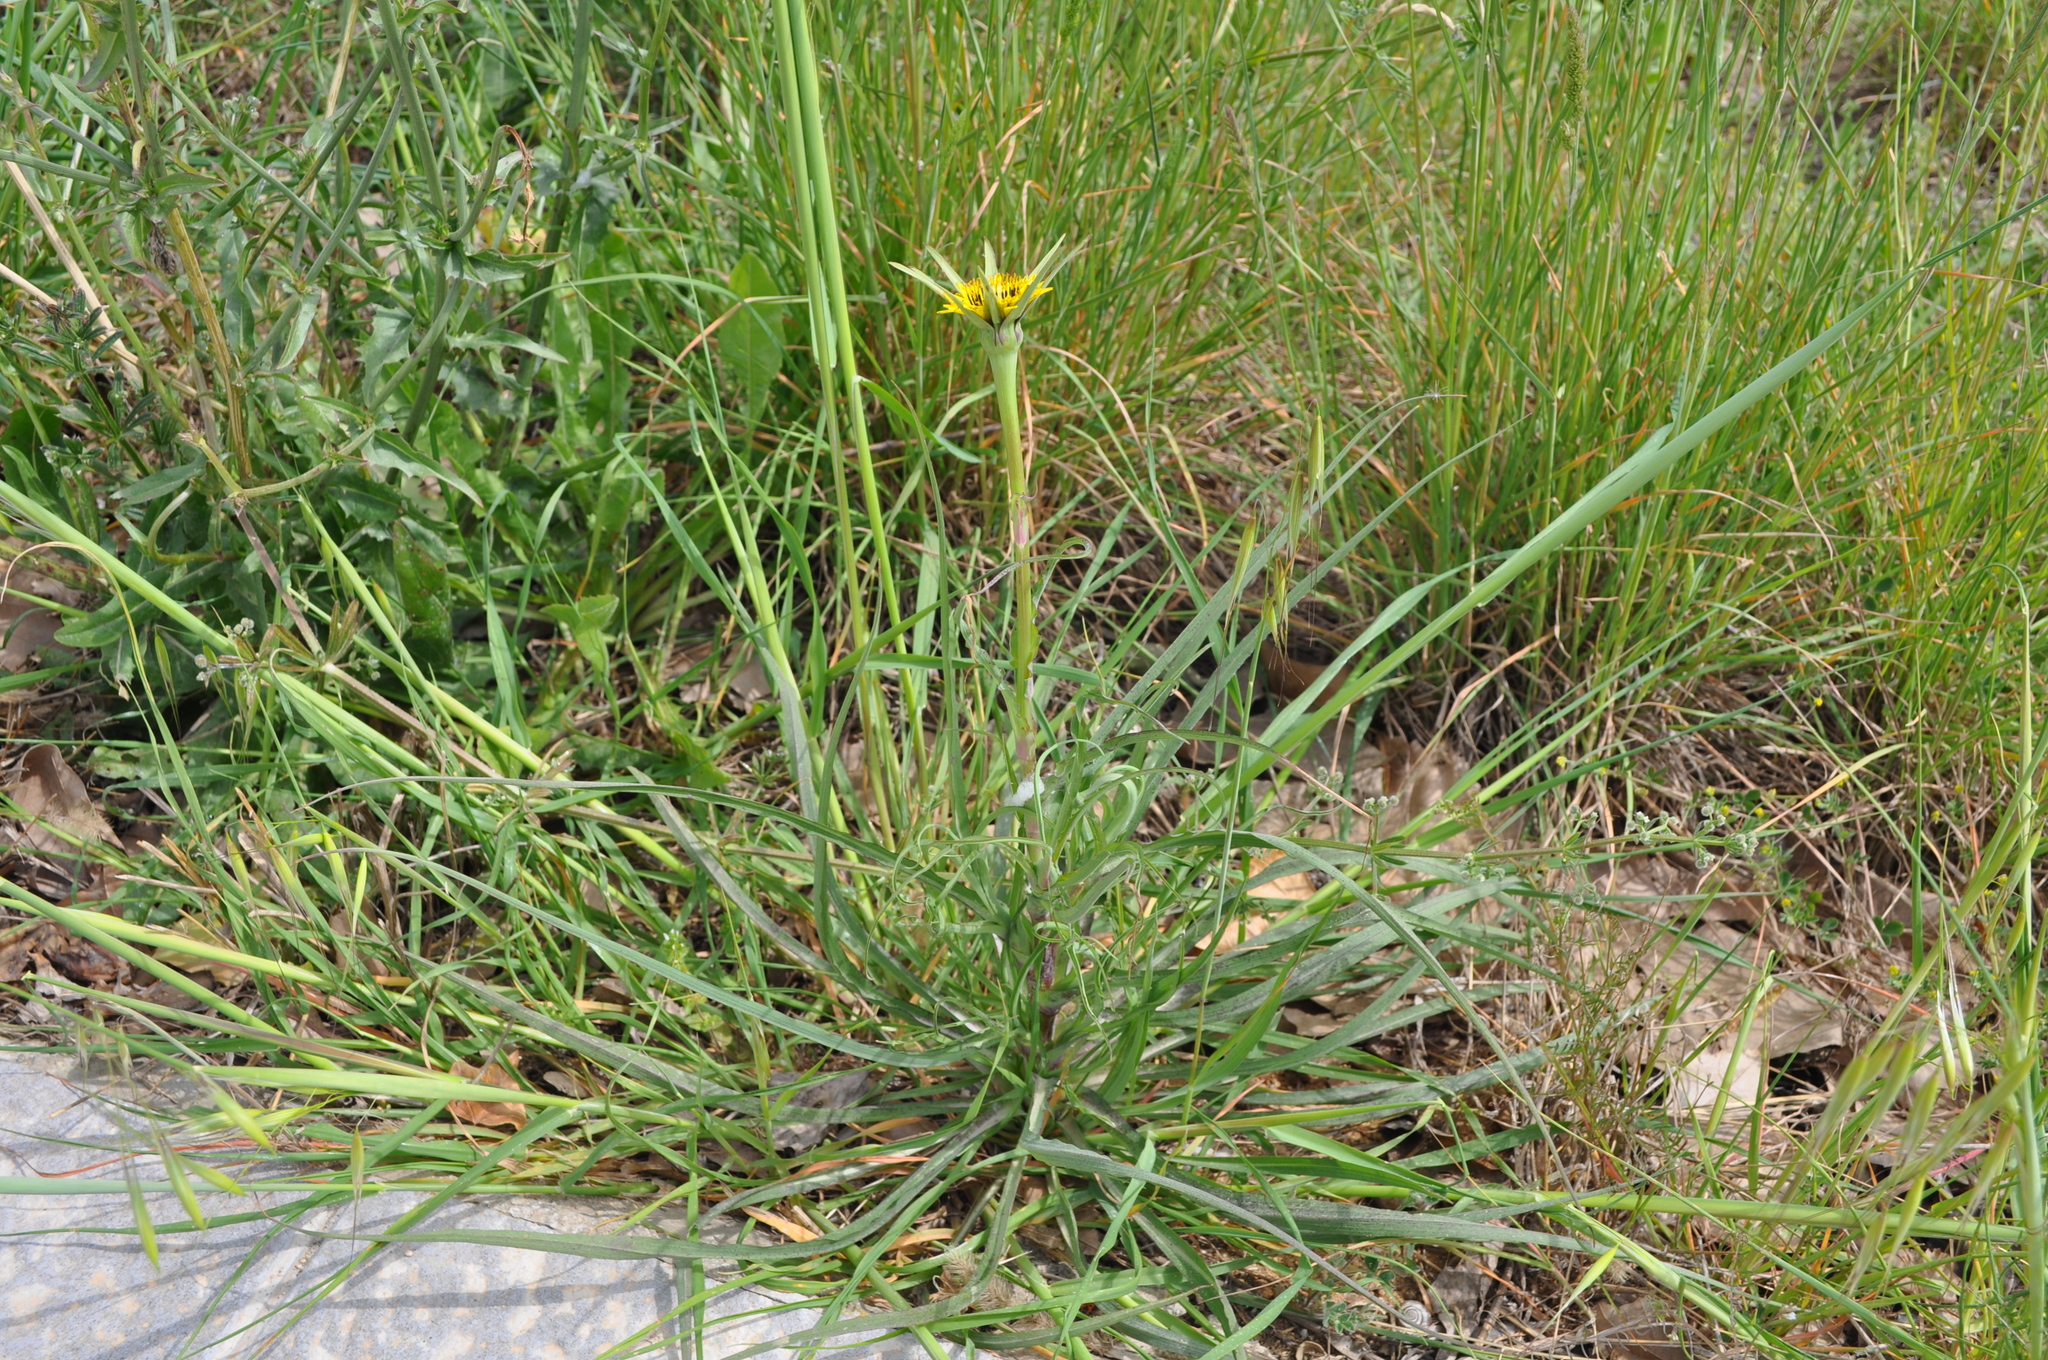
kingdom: Plantae
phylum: Tracheophyta
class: Magnoliopsida
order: Asterales
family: Asteraceae
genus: Tragopogon
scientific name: Tragopogon dubius
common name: Yellow salsify
